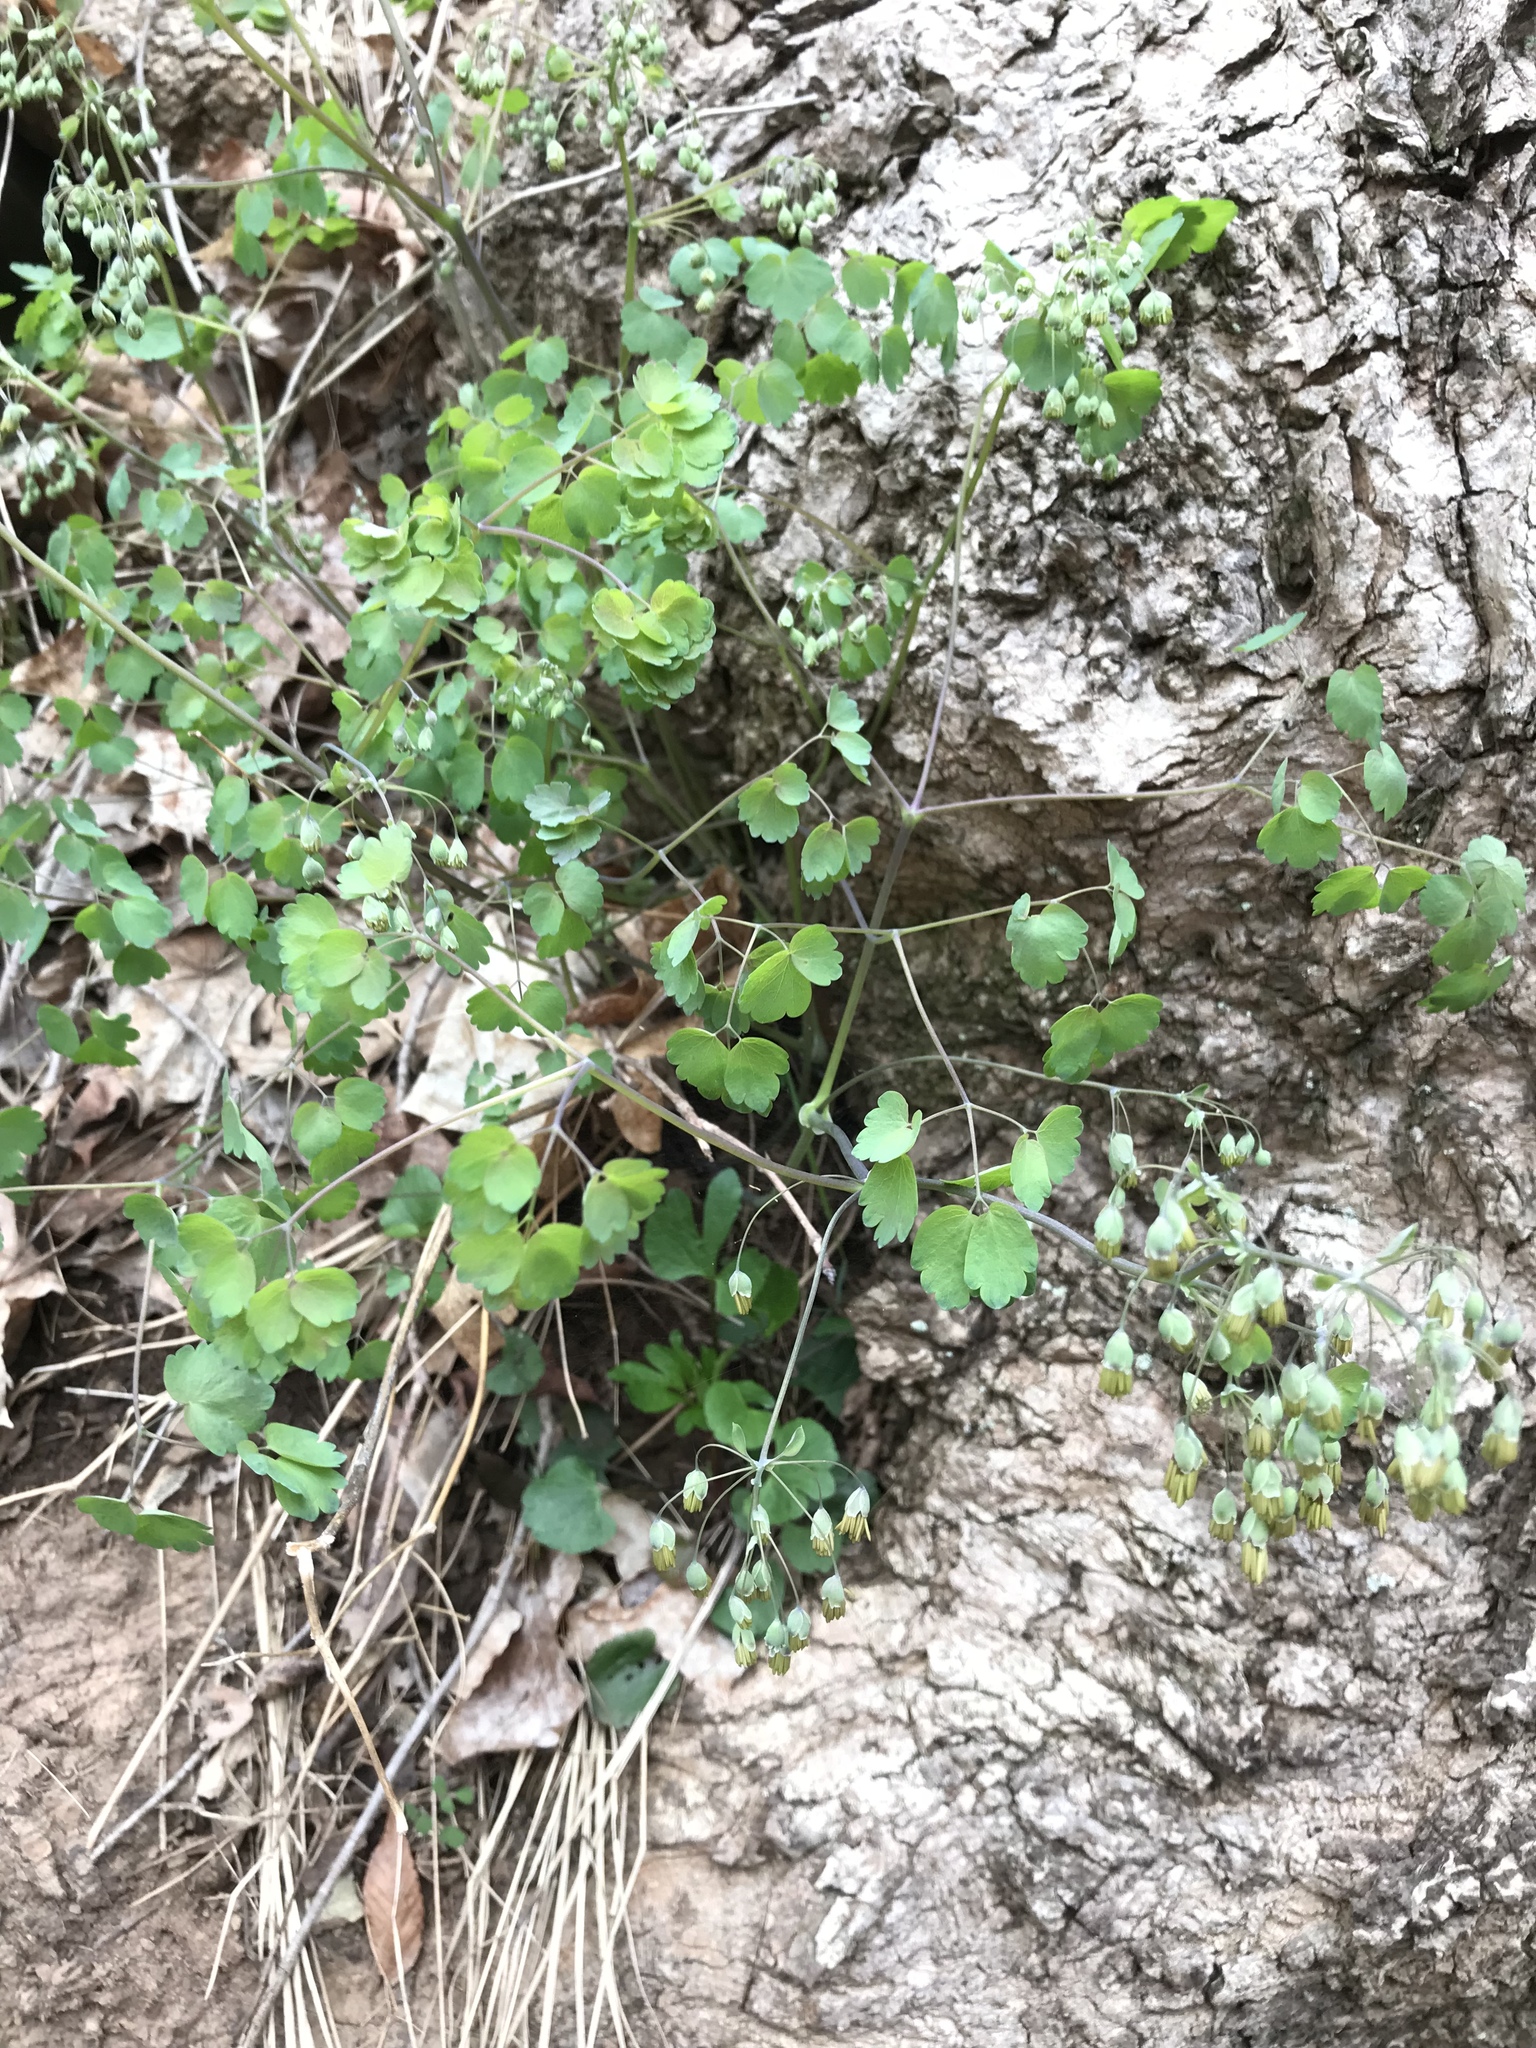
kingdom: Plantae
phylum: Tracheophyta
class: Magnoliopsida
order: Ranunculales
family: Ranunculaceae
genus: Thalictrum
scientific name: Thalictrum dioicum
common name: Early meadow-rue
